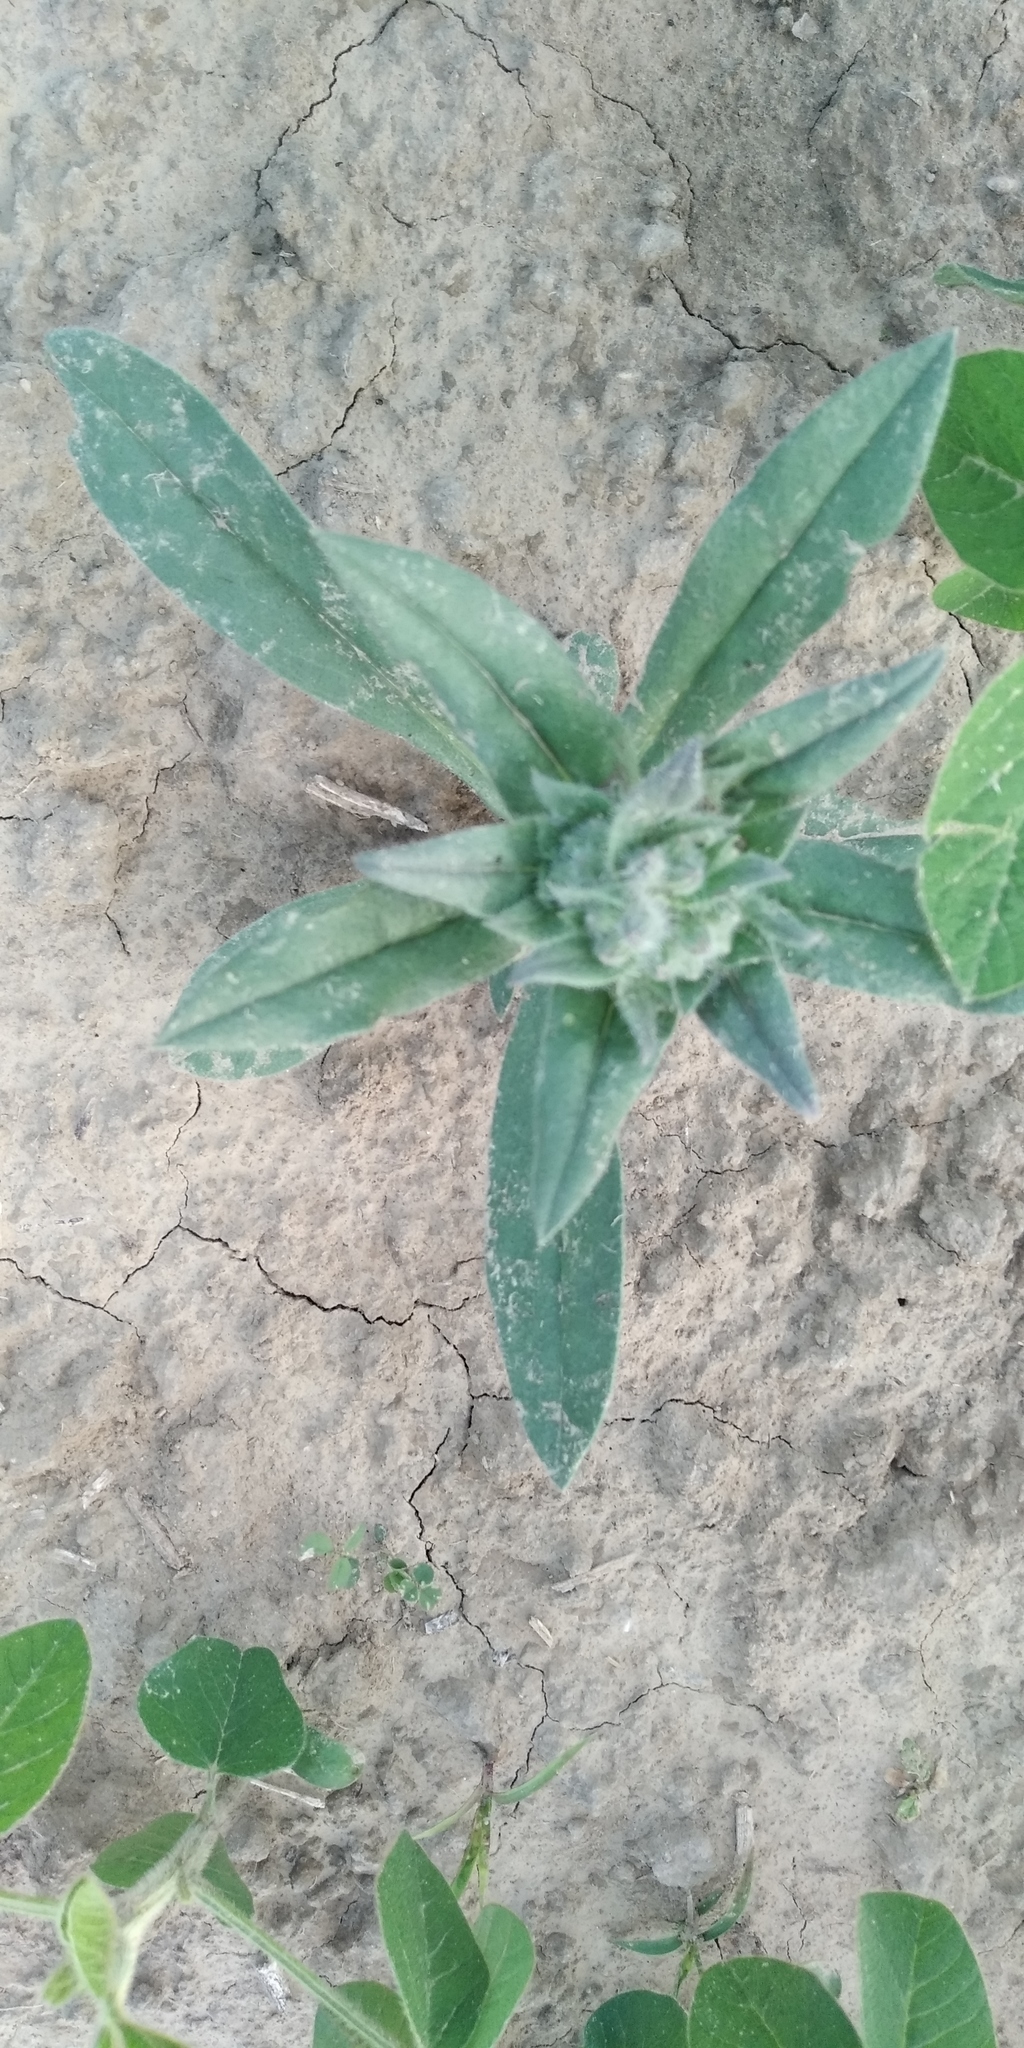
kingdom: Plantae
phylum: Tracheophyta
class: Magnoliopsida
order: Boraginales
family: Boraginaceae
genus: Nonea
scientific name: Nonea pulla
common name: Brown nonea
